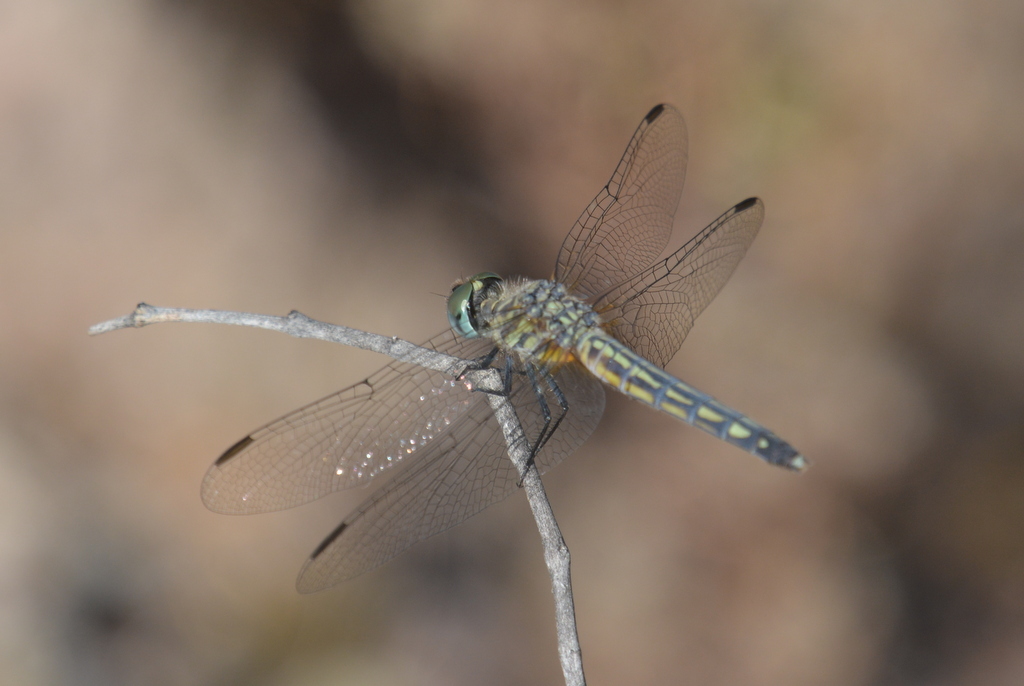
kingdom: Animalia
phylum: Arthropoda
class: Insecta
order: Odonata
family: Libellulidae
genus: Pachydiplax
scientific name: Pachydiplax longipennis
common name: Blue dasher
